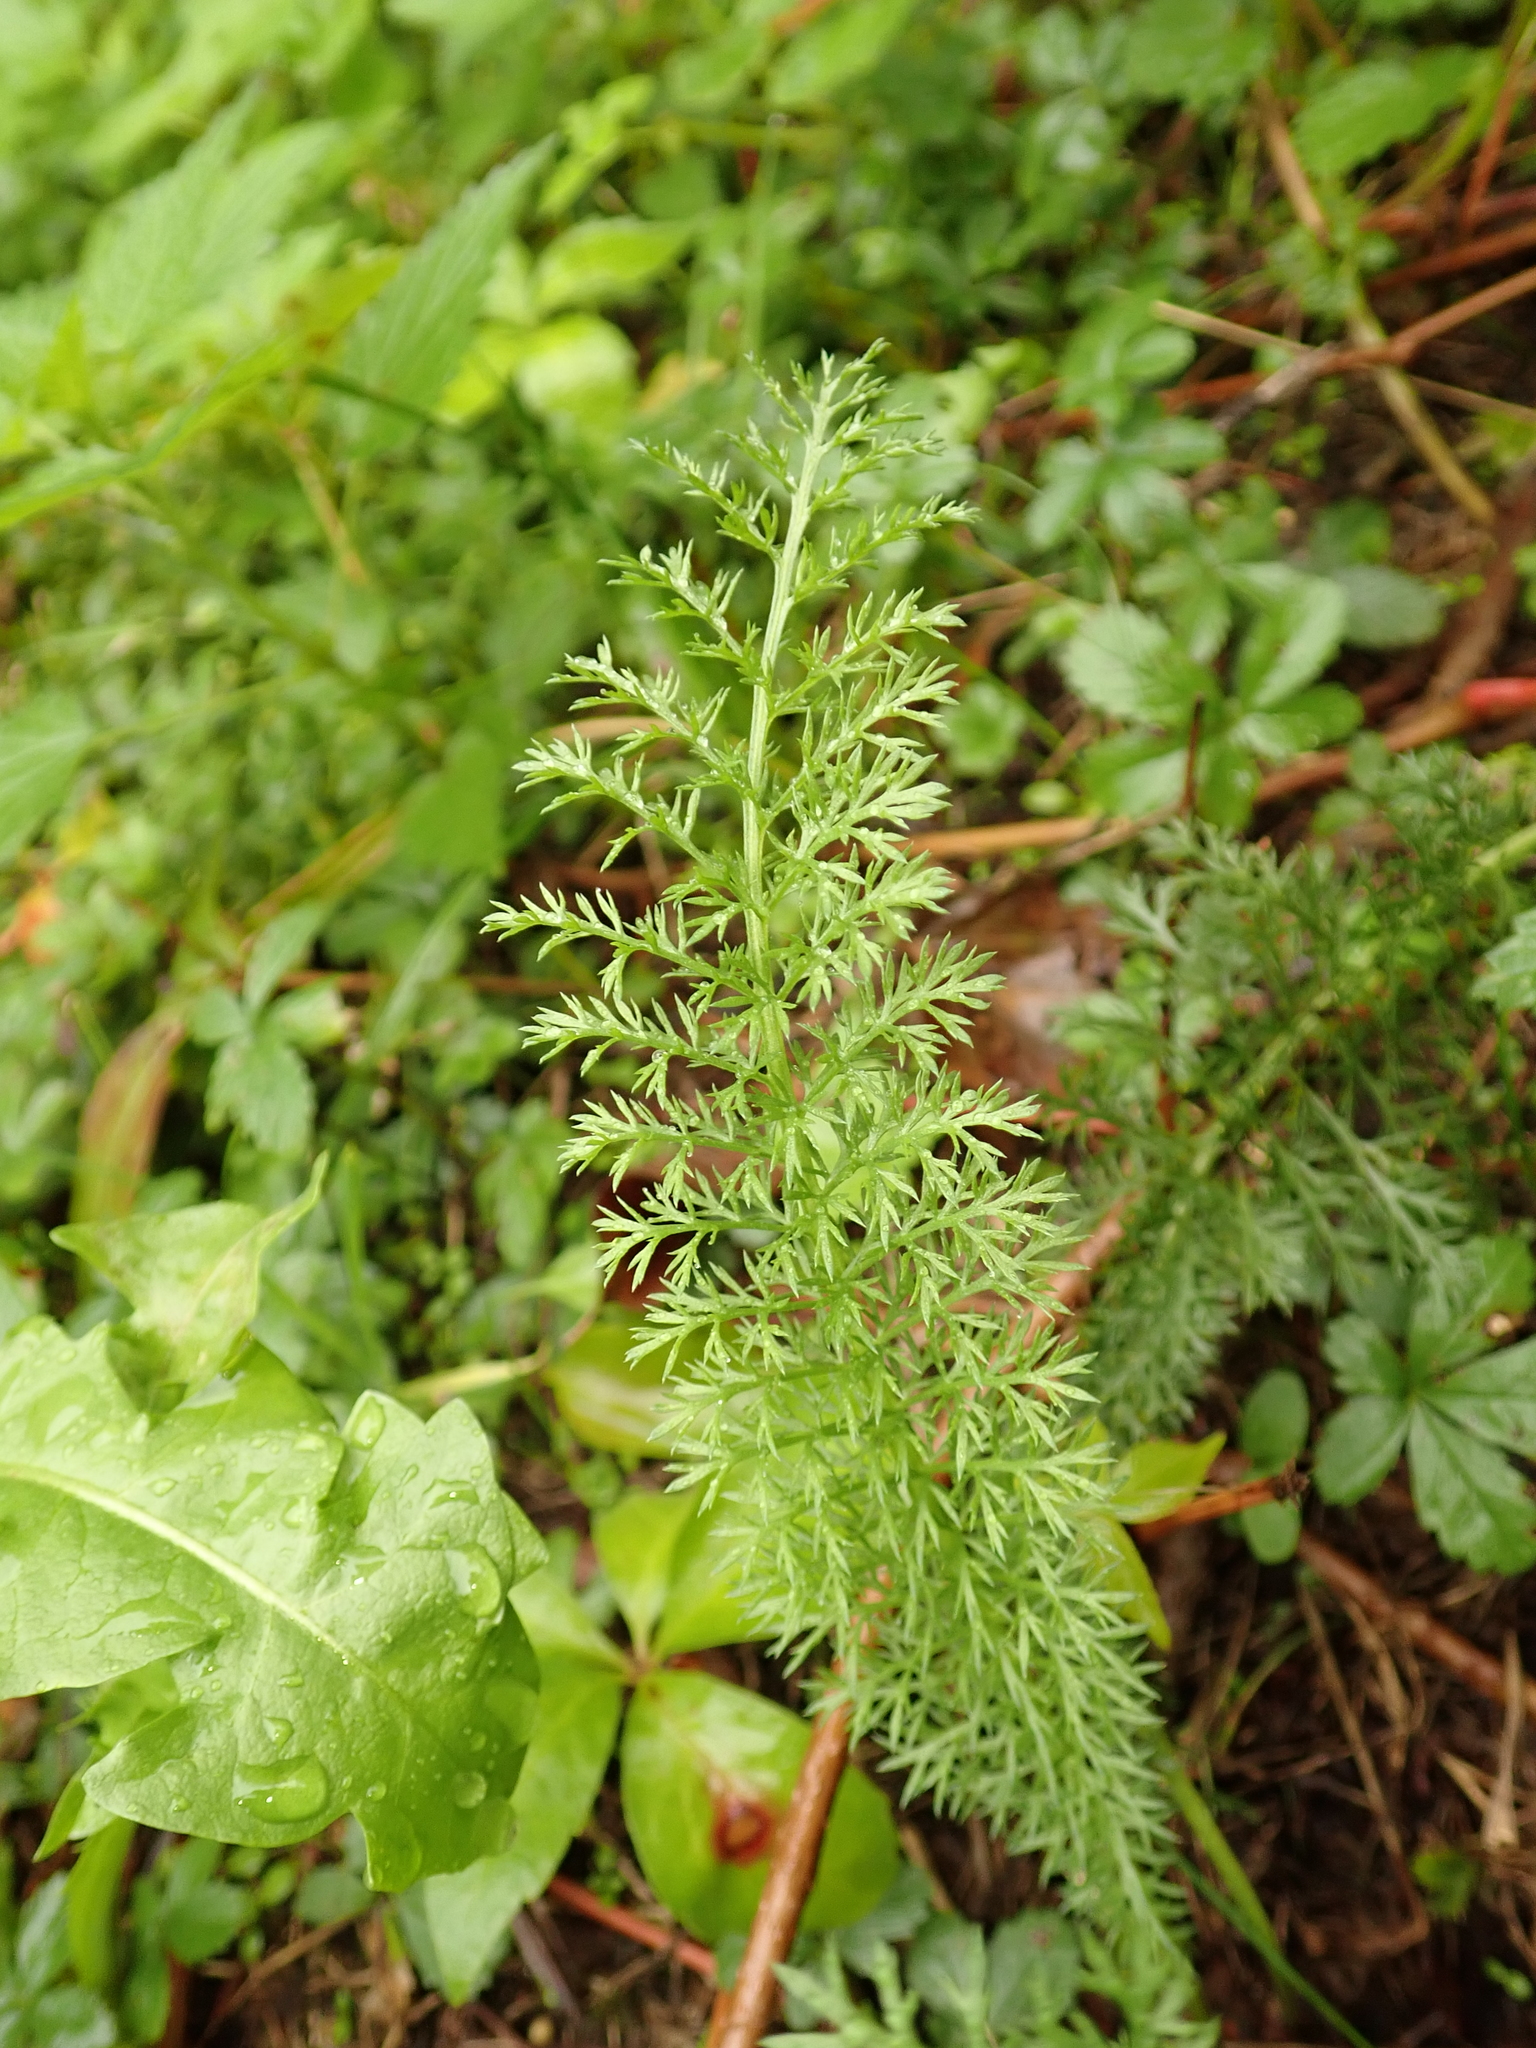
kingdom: Plantae
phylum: Tracheophyta
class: Magnoliopsida
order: Asterales
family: Asteraceae
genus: Achillea
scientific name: Achillea millefolium
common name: Yarrow
